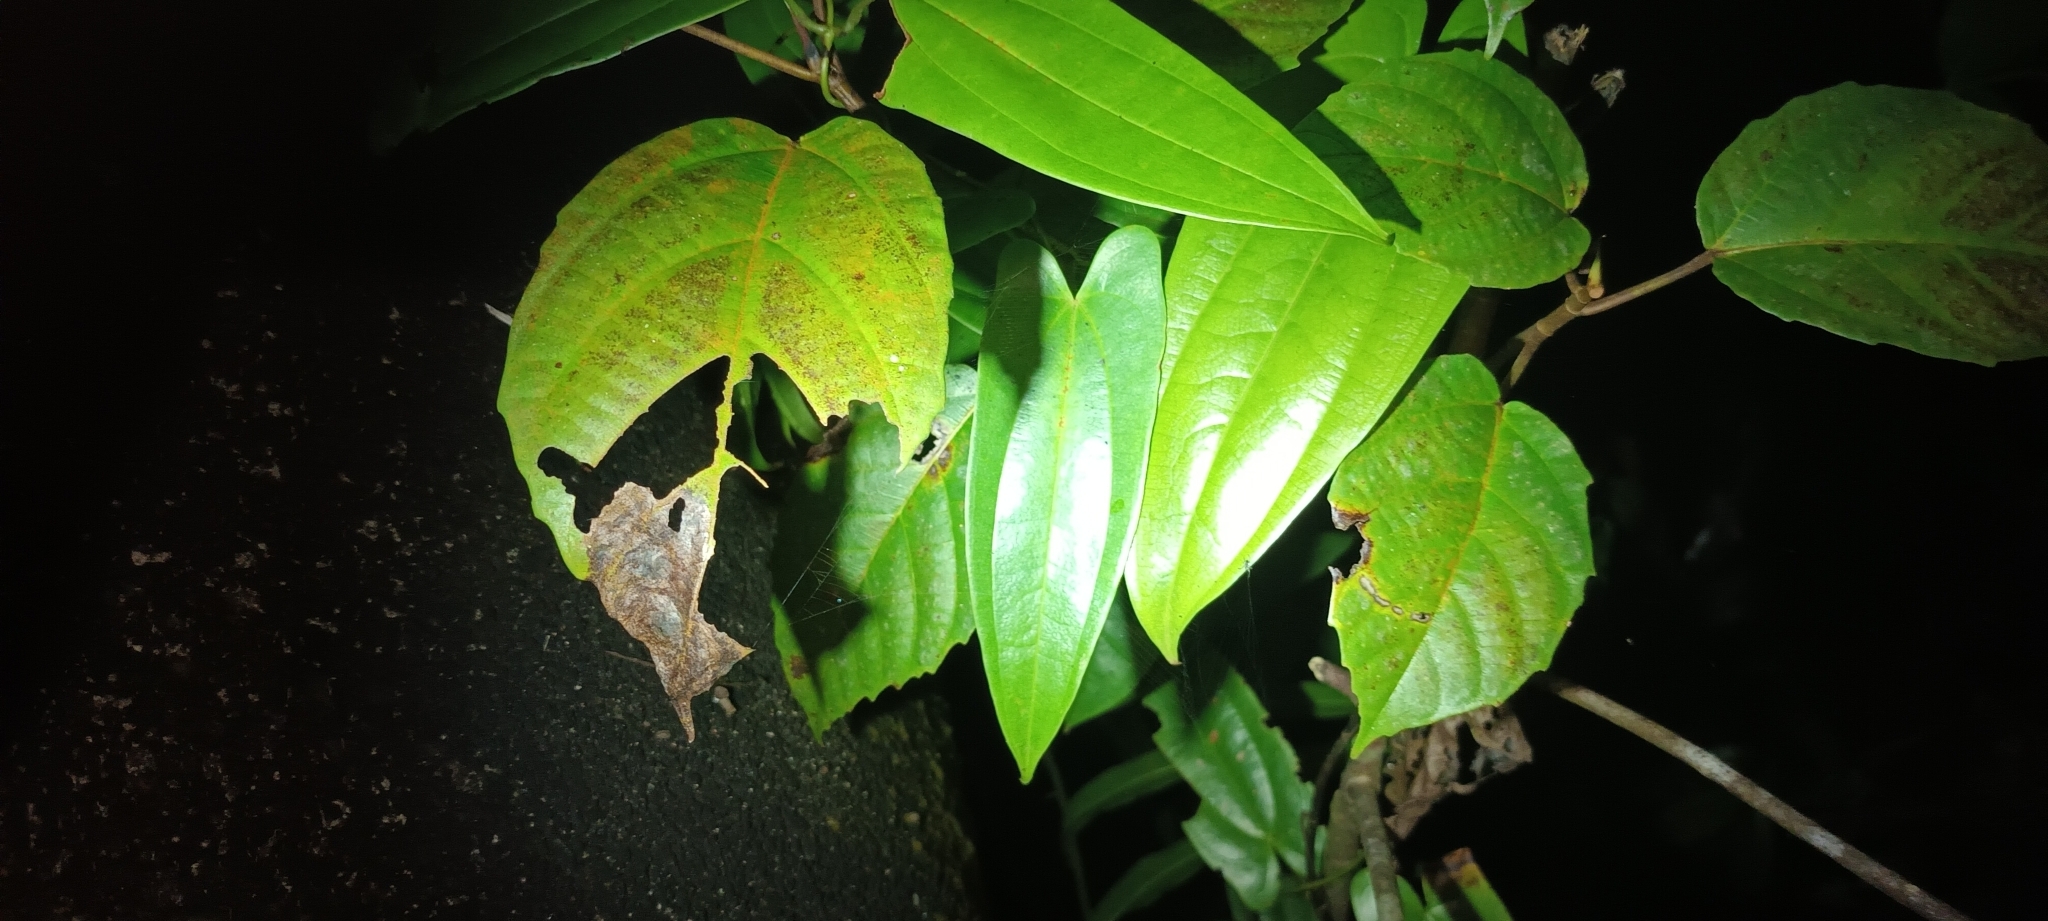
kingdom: Plantae
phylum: Tracheophyta
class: Liliopsida
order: Dioscoreales
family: Dioscoreaceae
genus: Dioscorea
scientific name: Dioscorea pyrifolia
